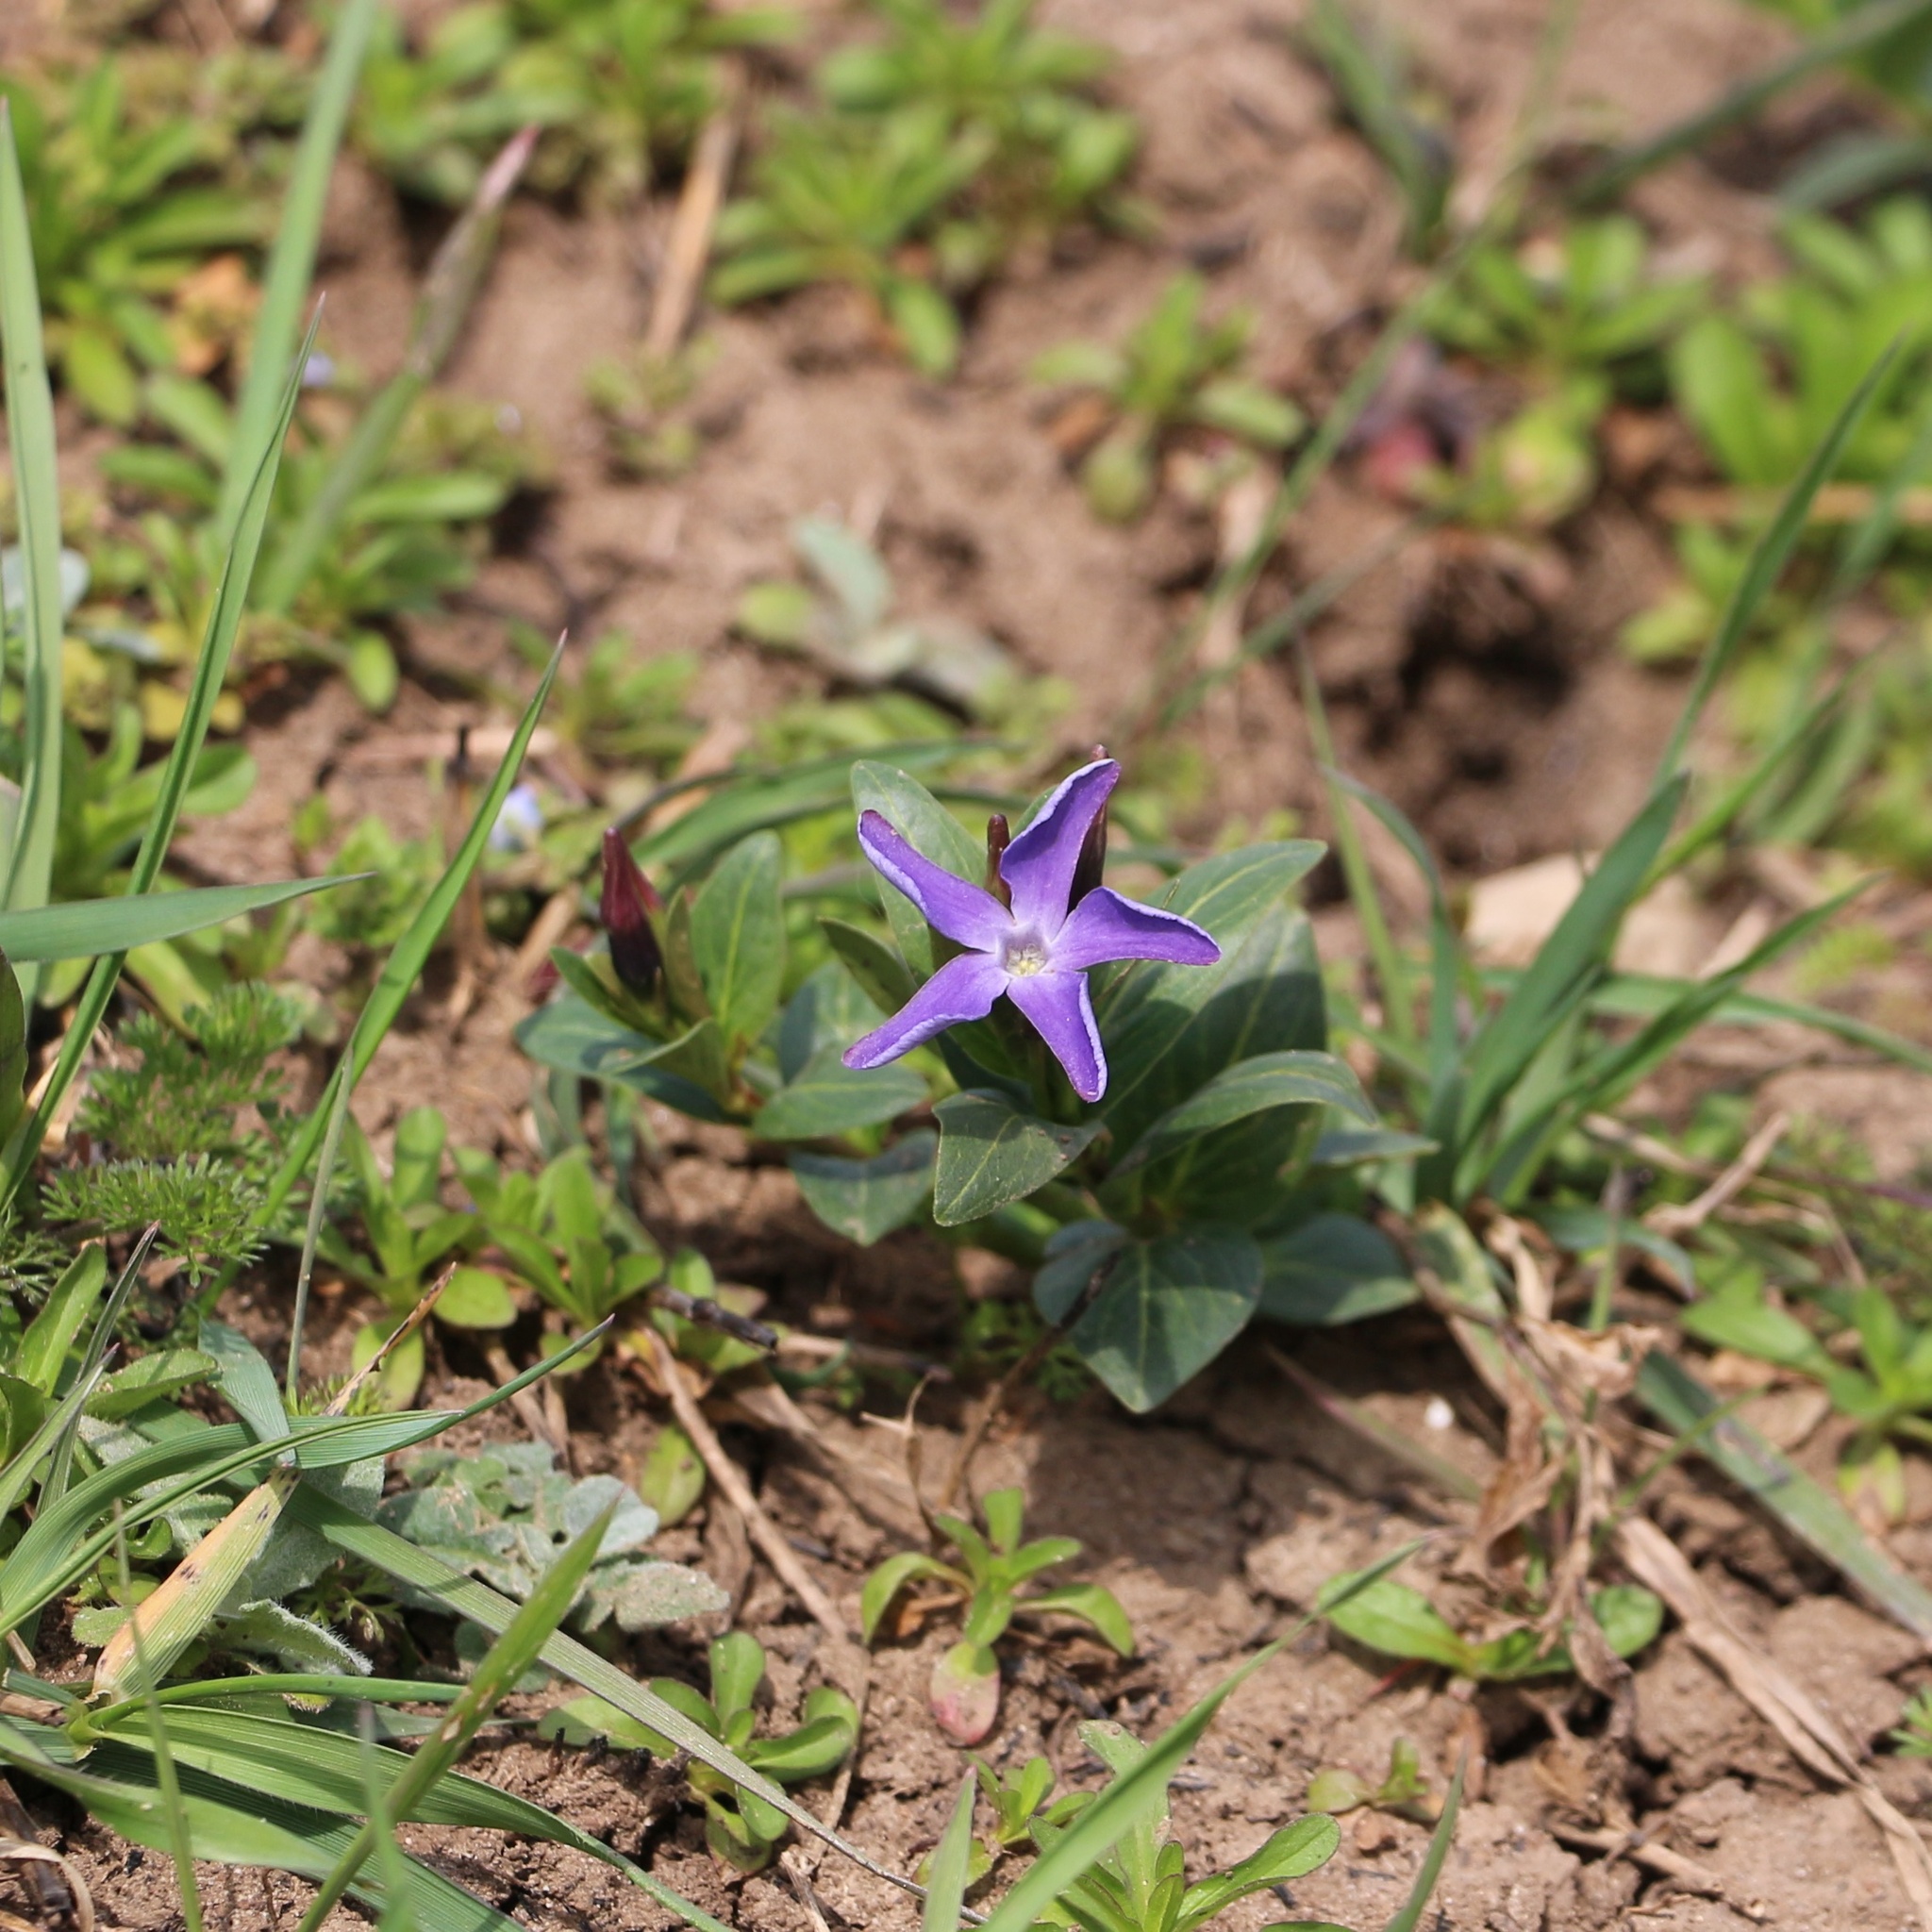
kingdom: Plantae
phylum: Tracheophyta
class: Magnoliopsida
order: Gentianales
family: Apocynaceae
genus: Vinca
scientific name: Vinca herbacea
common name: Herbaceous periwinkle
